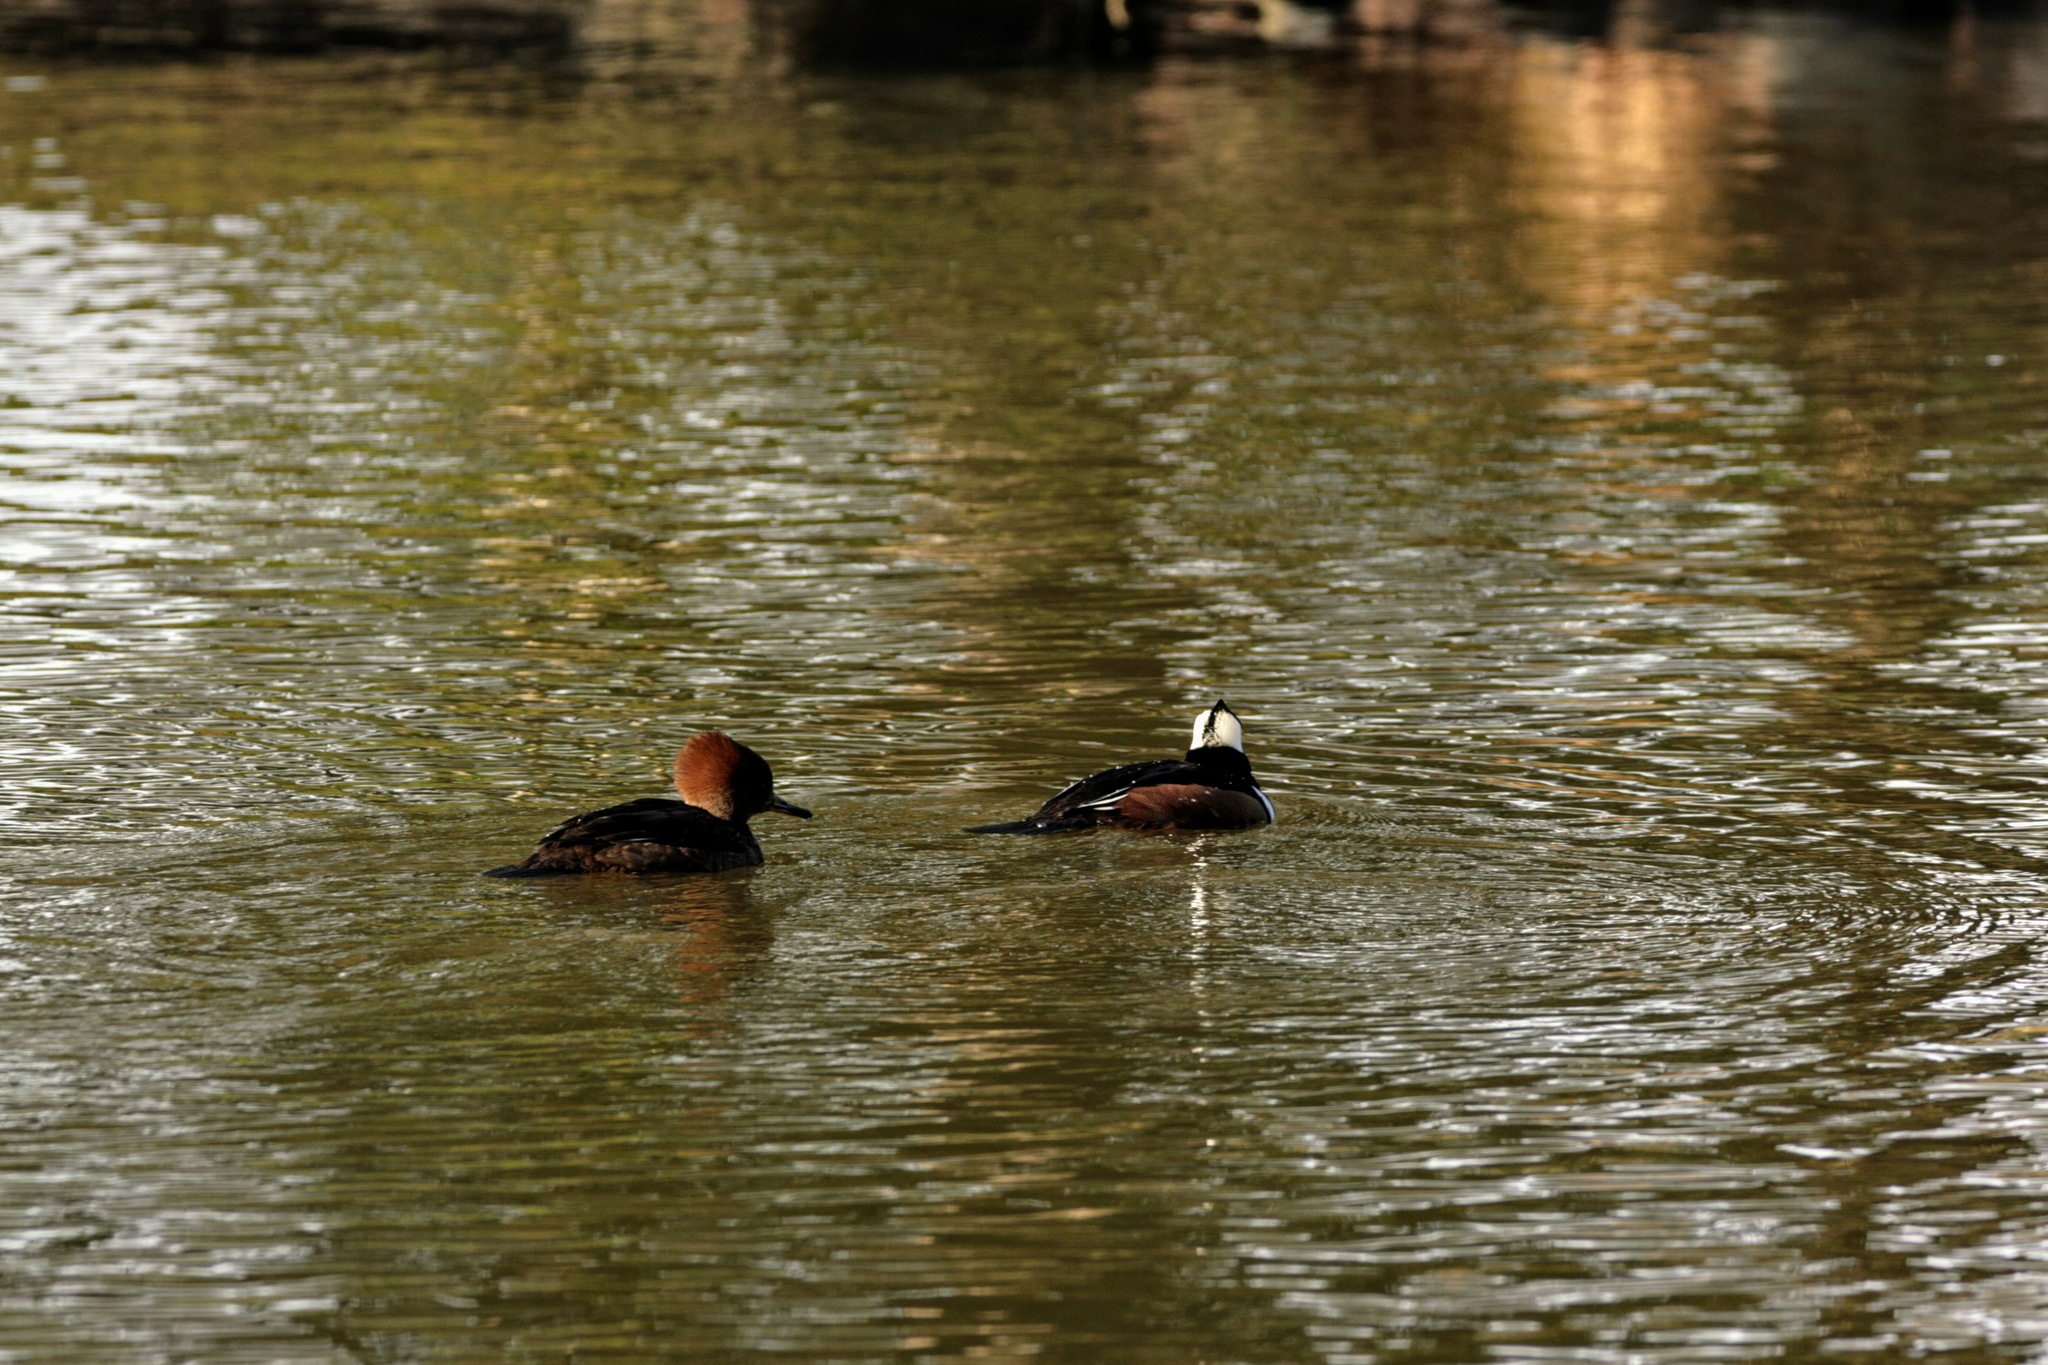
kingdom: Animalia
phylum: Chordata
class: Aves
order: Anseriformes
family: Anatidae
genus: Lophodytes
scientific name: Lophodytes cucullatus
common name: Hooded merganser
